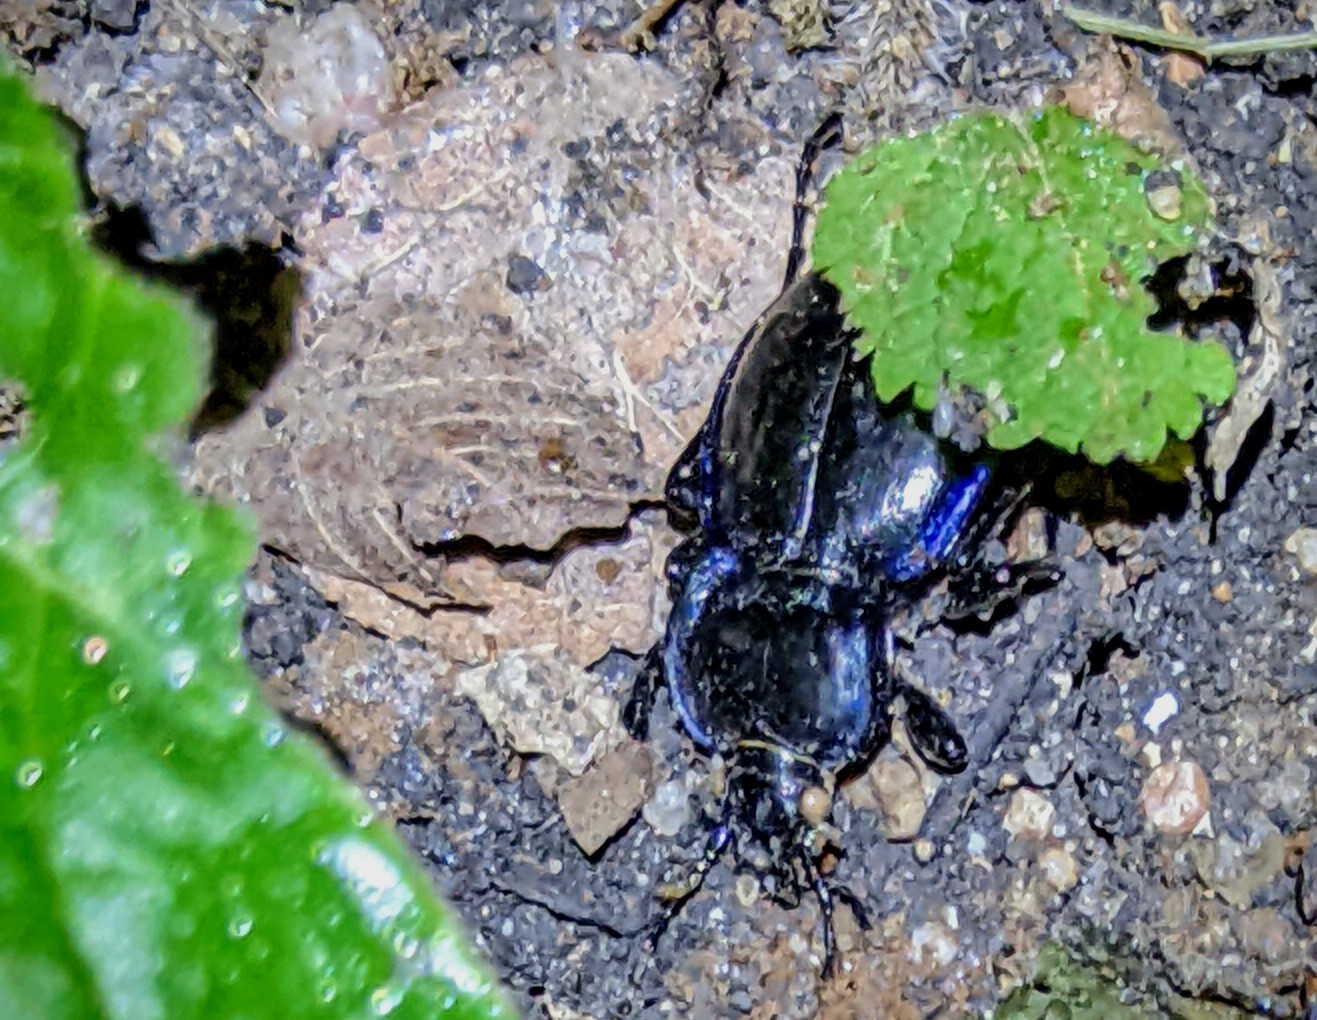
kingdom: Animalia
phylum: Arthropoda
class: Insecta
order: Coleoptera
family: Carabidae
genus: Carabus
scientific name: Carabus finitimus
